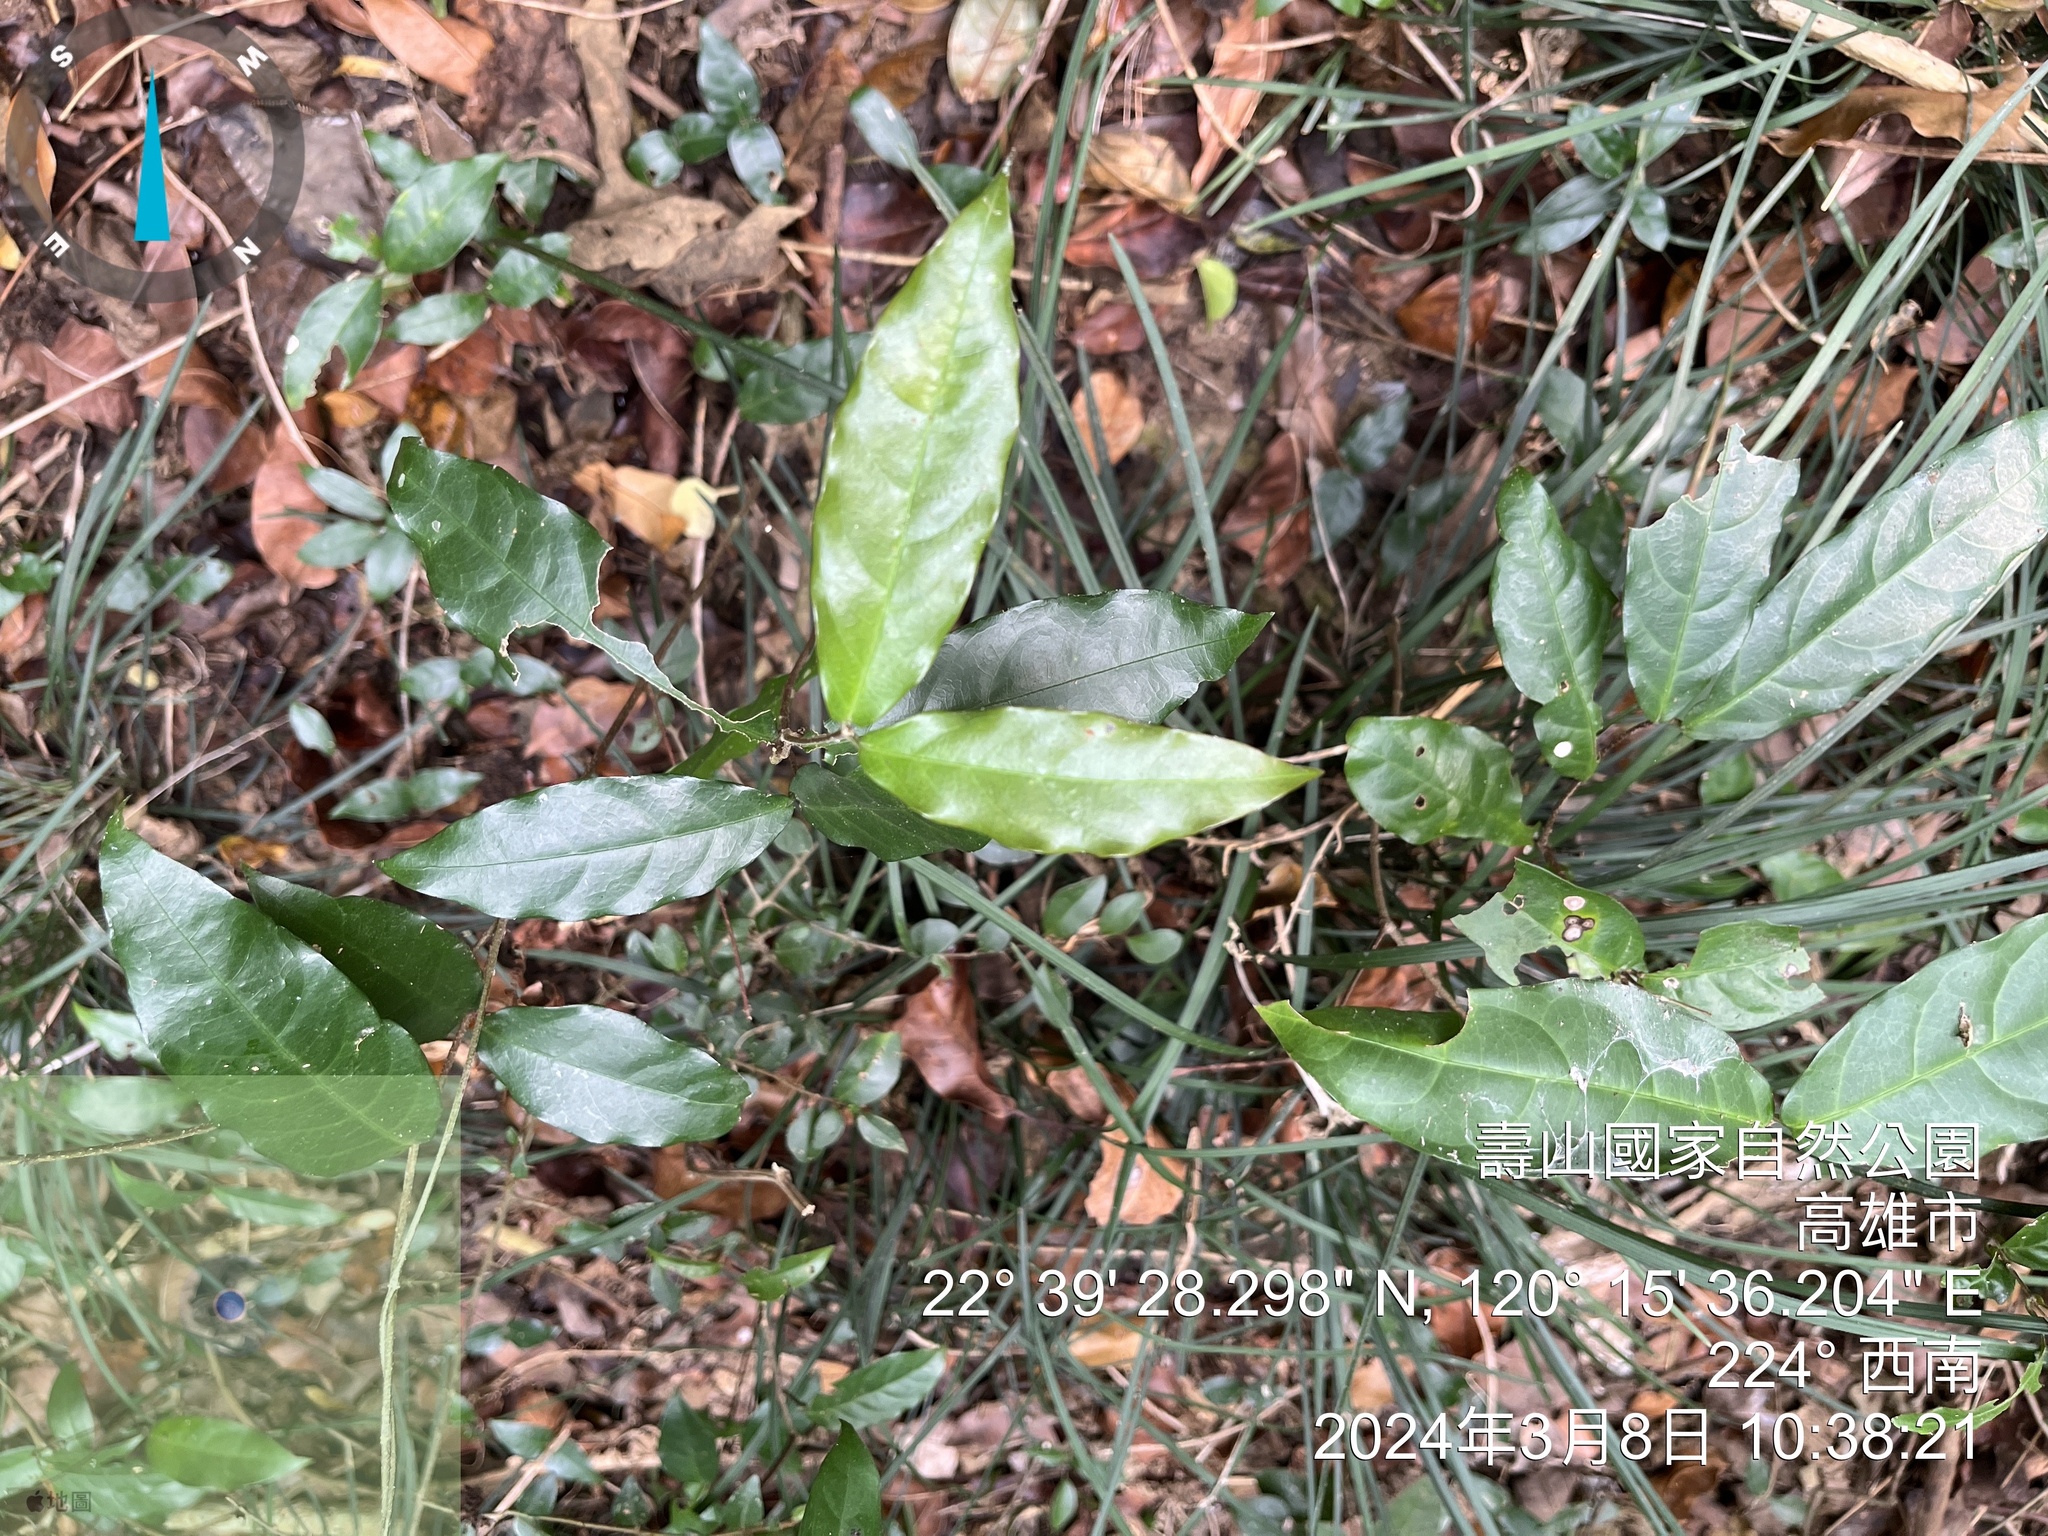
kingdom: Plantae
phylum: Tracheophyta
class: Magnoliopsida
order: Brassicales
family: Capparaceae
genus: Capparis
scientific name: Capparis micracantha
